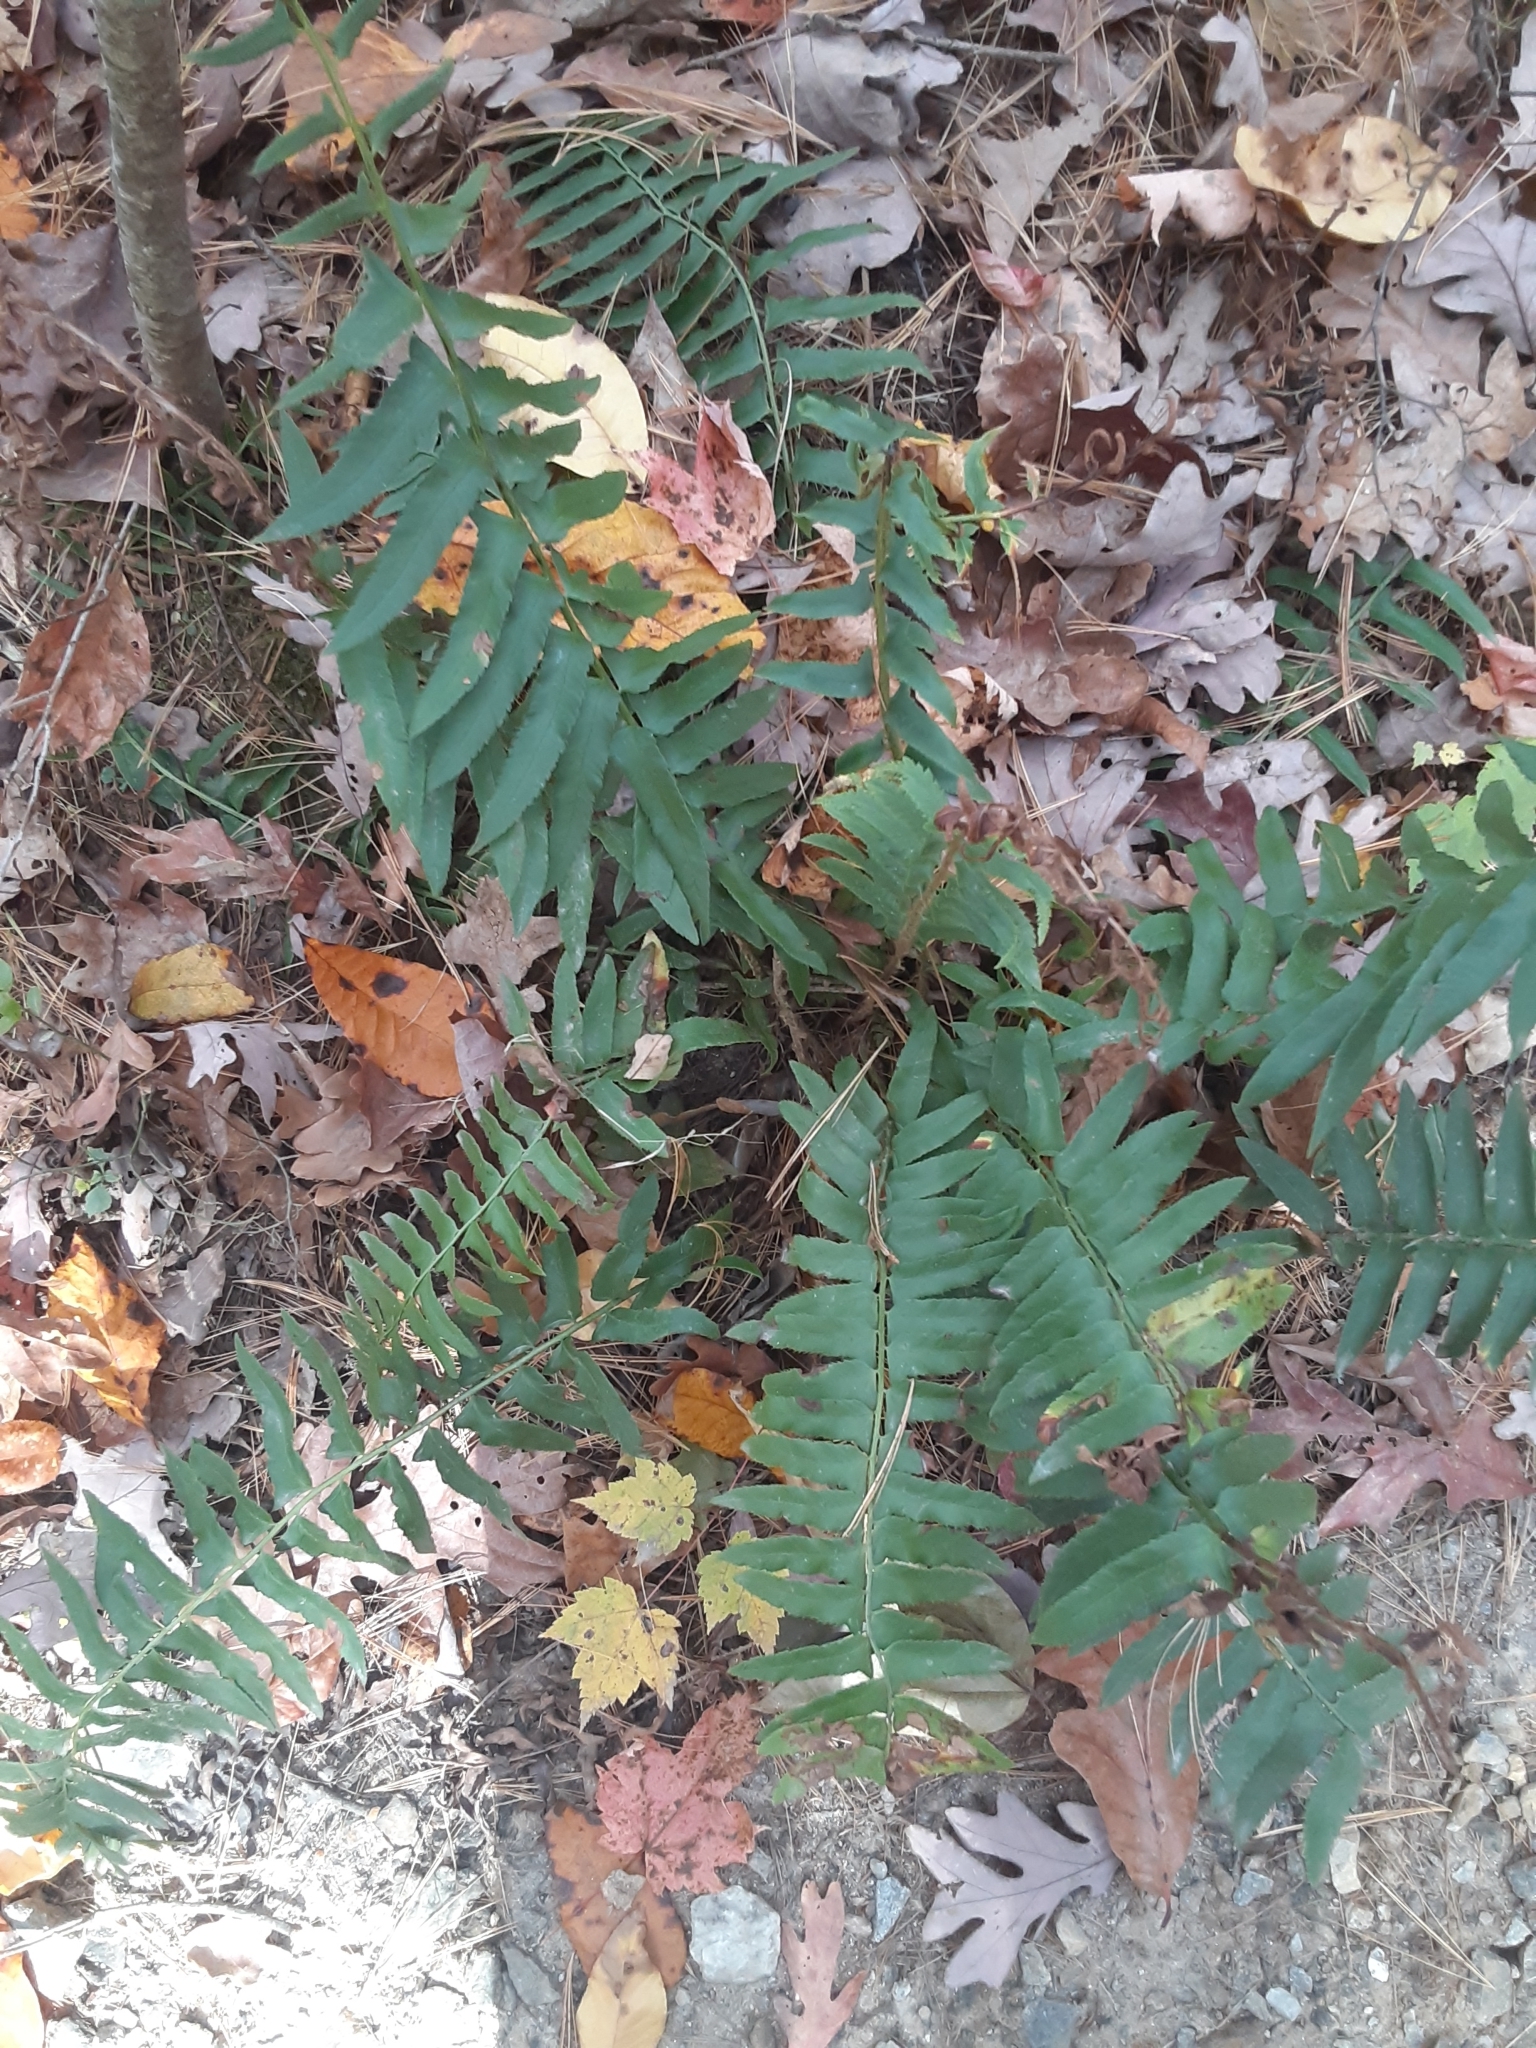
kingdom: Plantae
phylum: Tracheophyta
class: Polypodiopsida
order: Polypodiales
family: Dryopteridaceae
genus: Polystichum
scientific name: Polystichum acrostichoides
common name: Christmas fern
